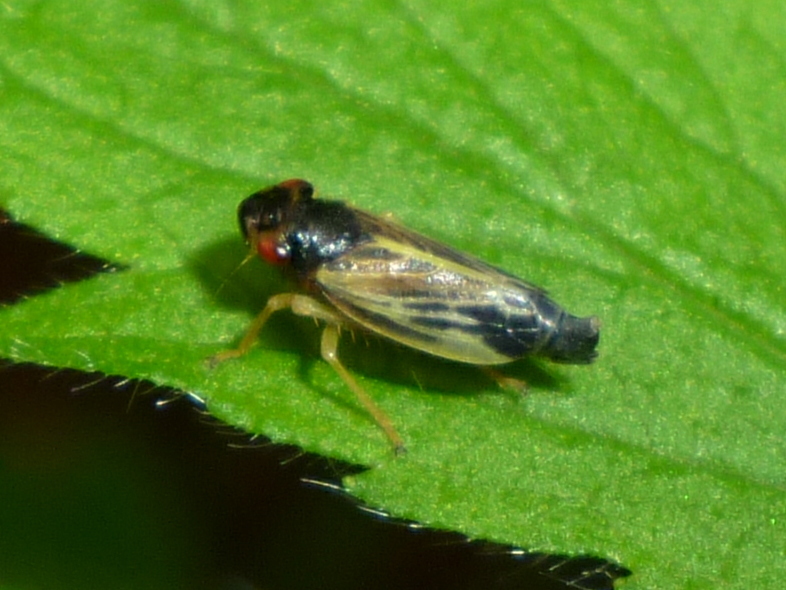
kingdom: Animalia
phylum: Arthropoda
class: Insecta
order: Hemiptera
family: Cicadellidae
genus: Evacanthus
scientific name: Evacanthus acuminatus
